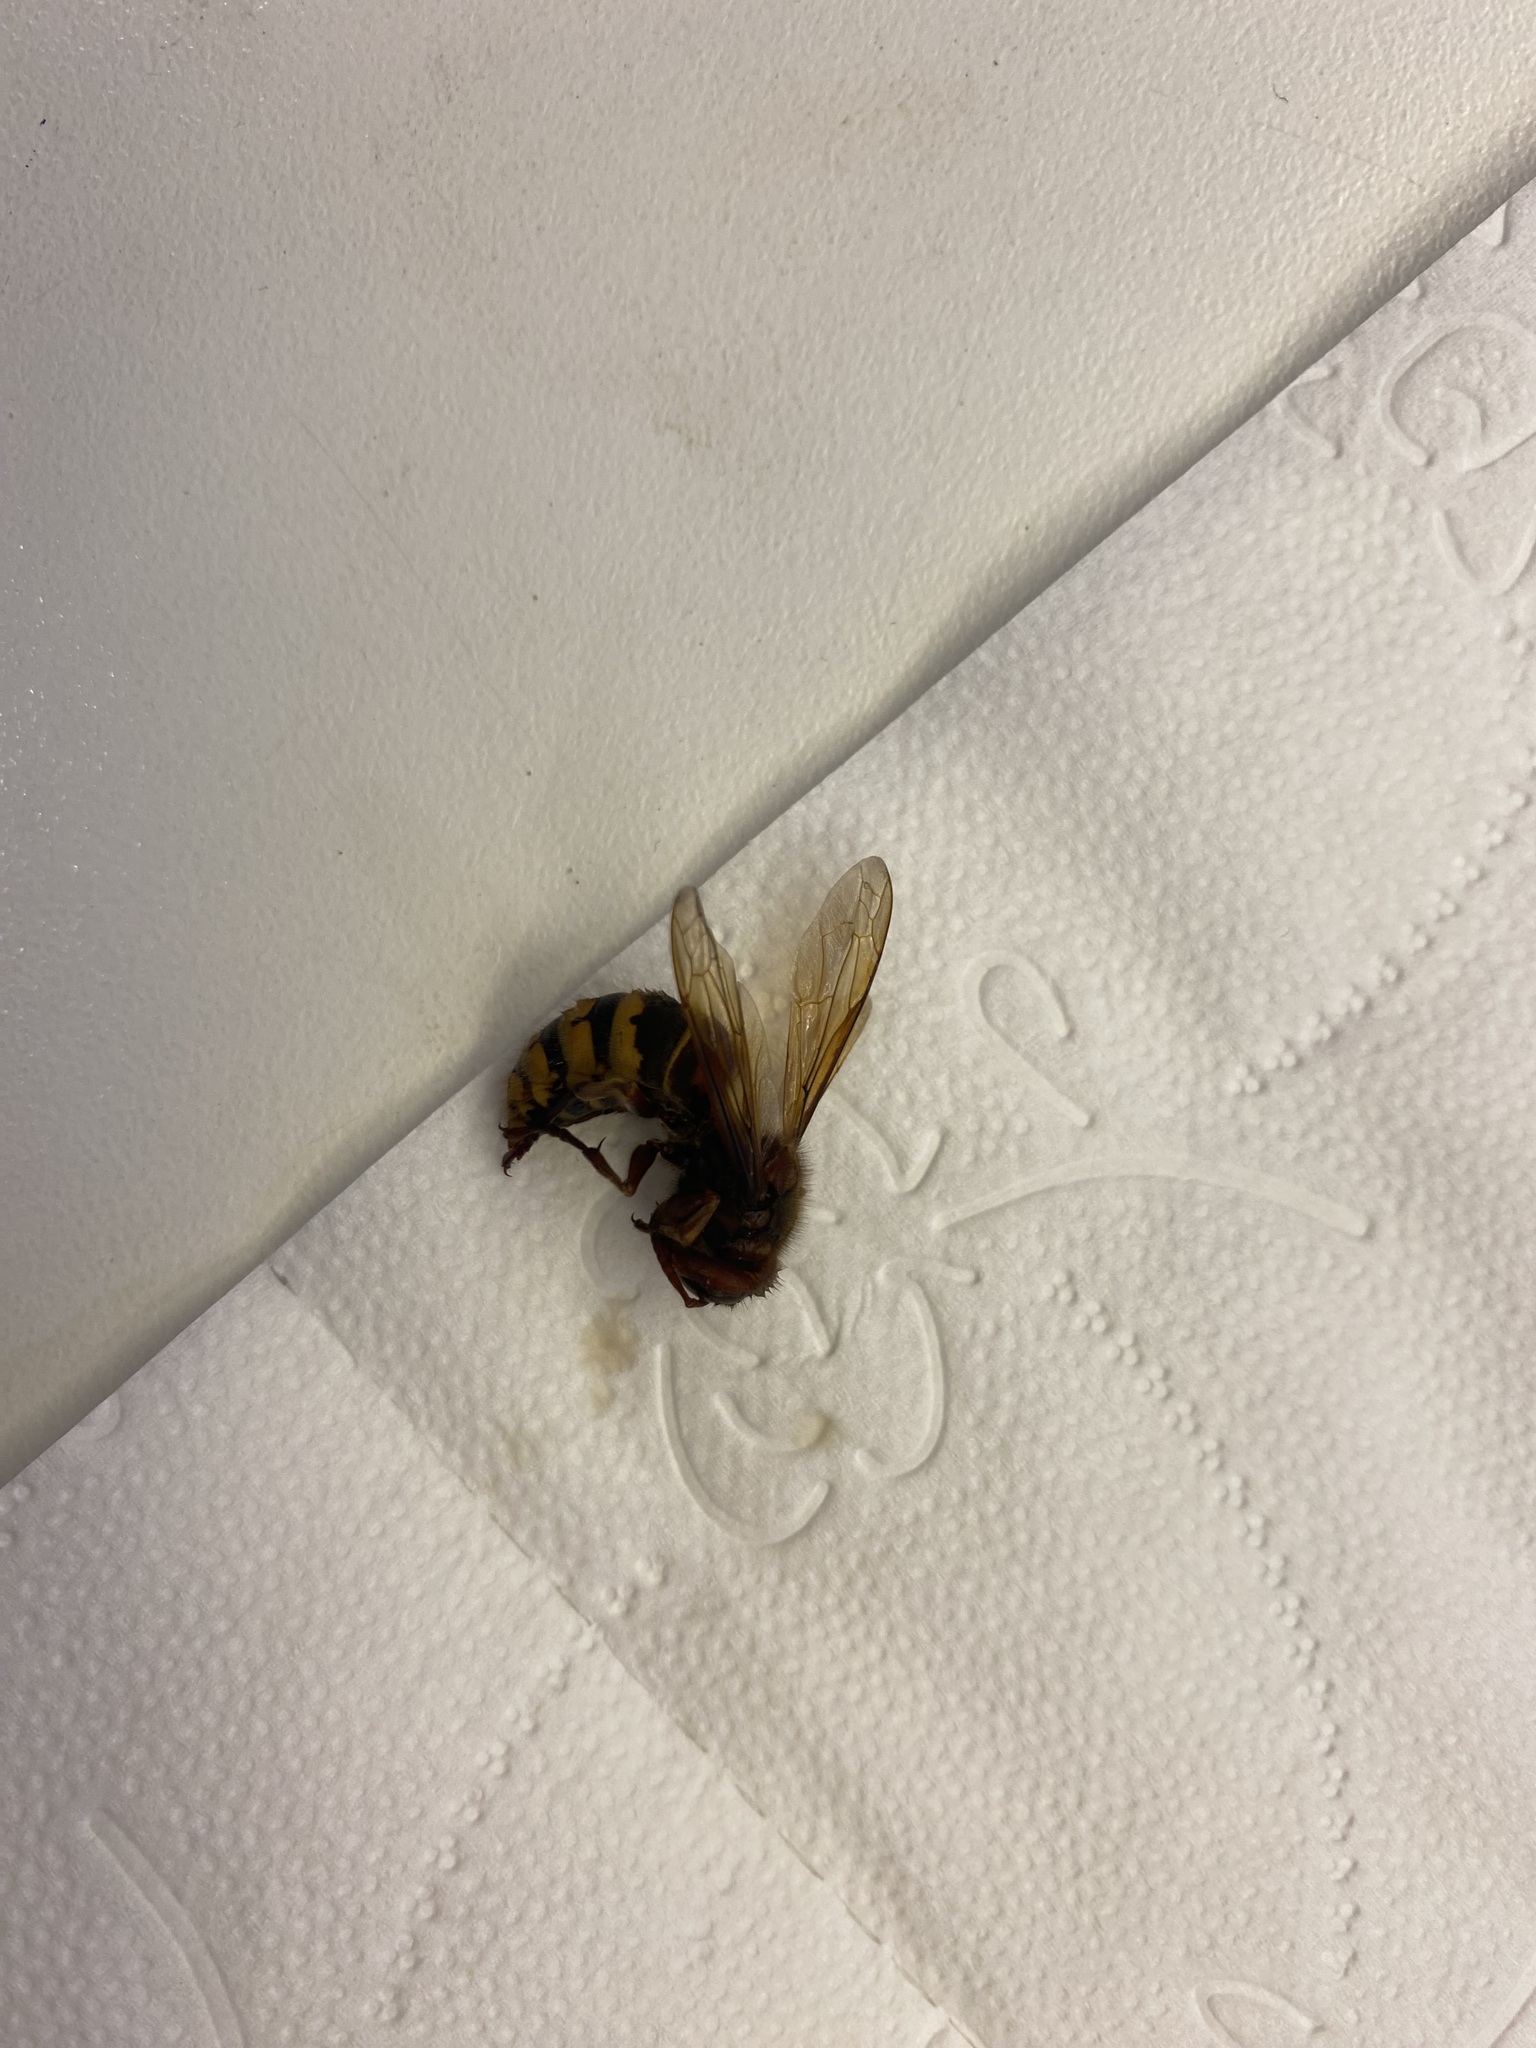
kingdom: Animalia
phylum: Arthropoda
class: Insecta
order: Hymenoptera
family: Vespidae
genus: Vespa
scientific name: Vespa crabro
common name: Hornet
